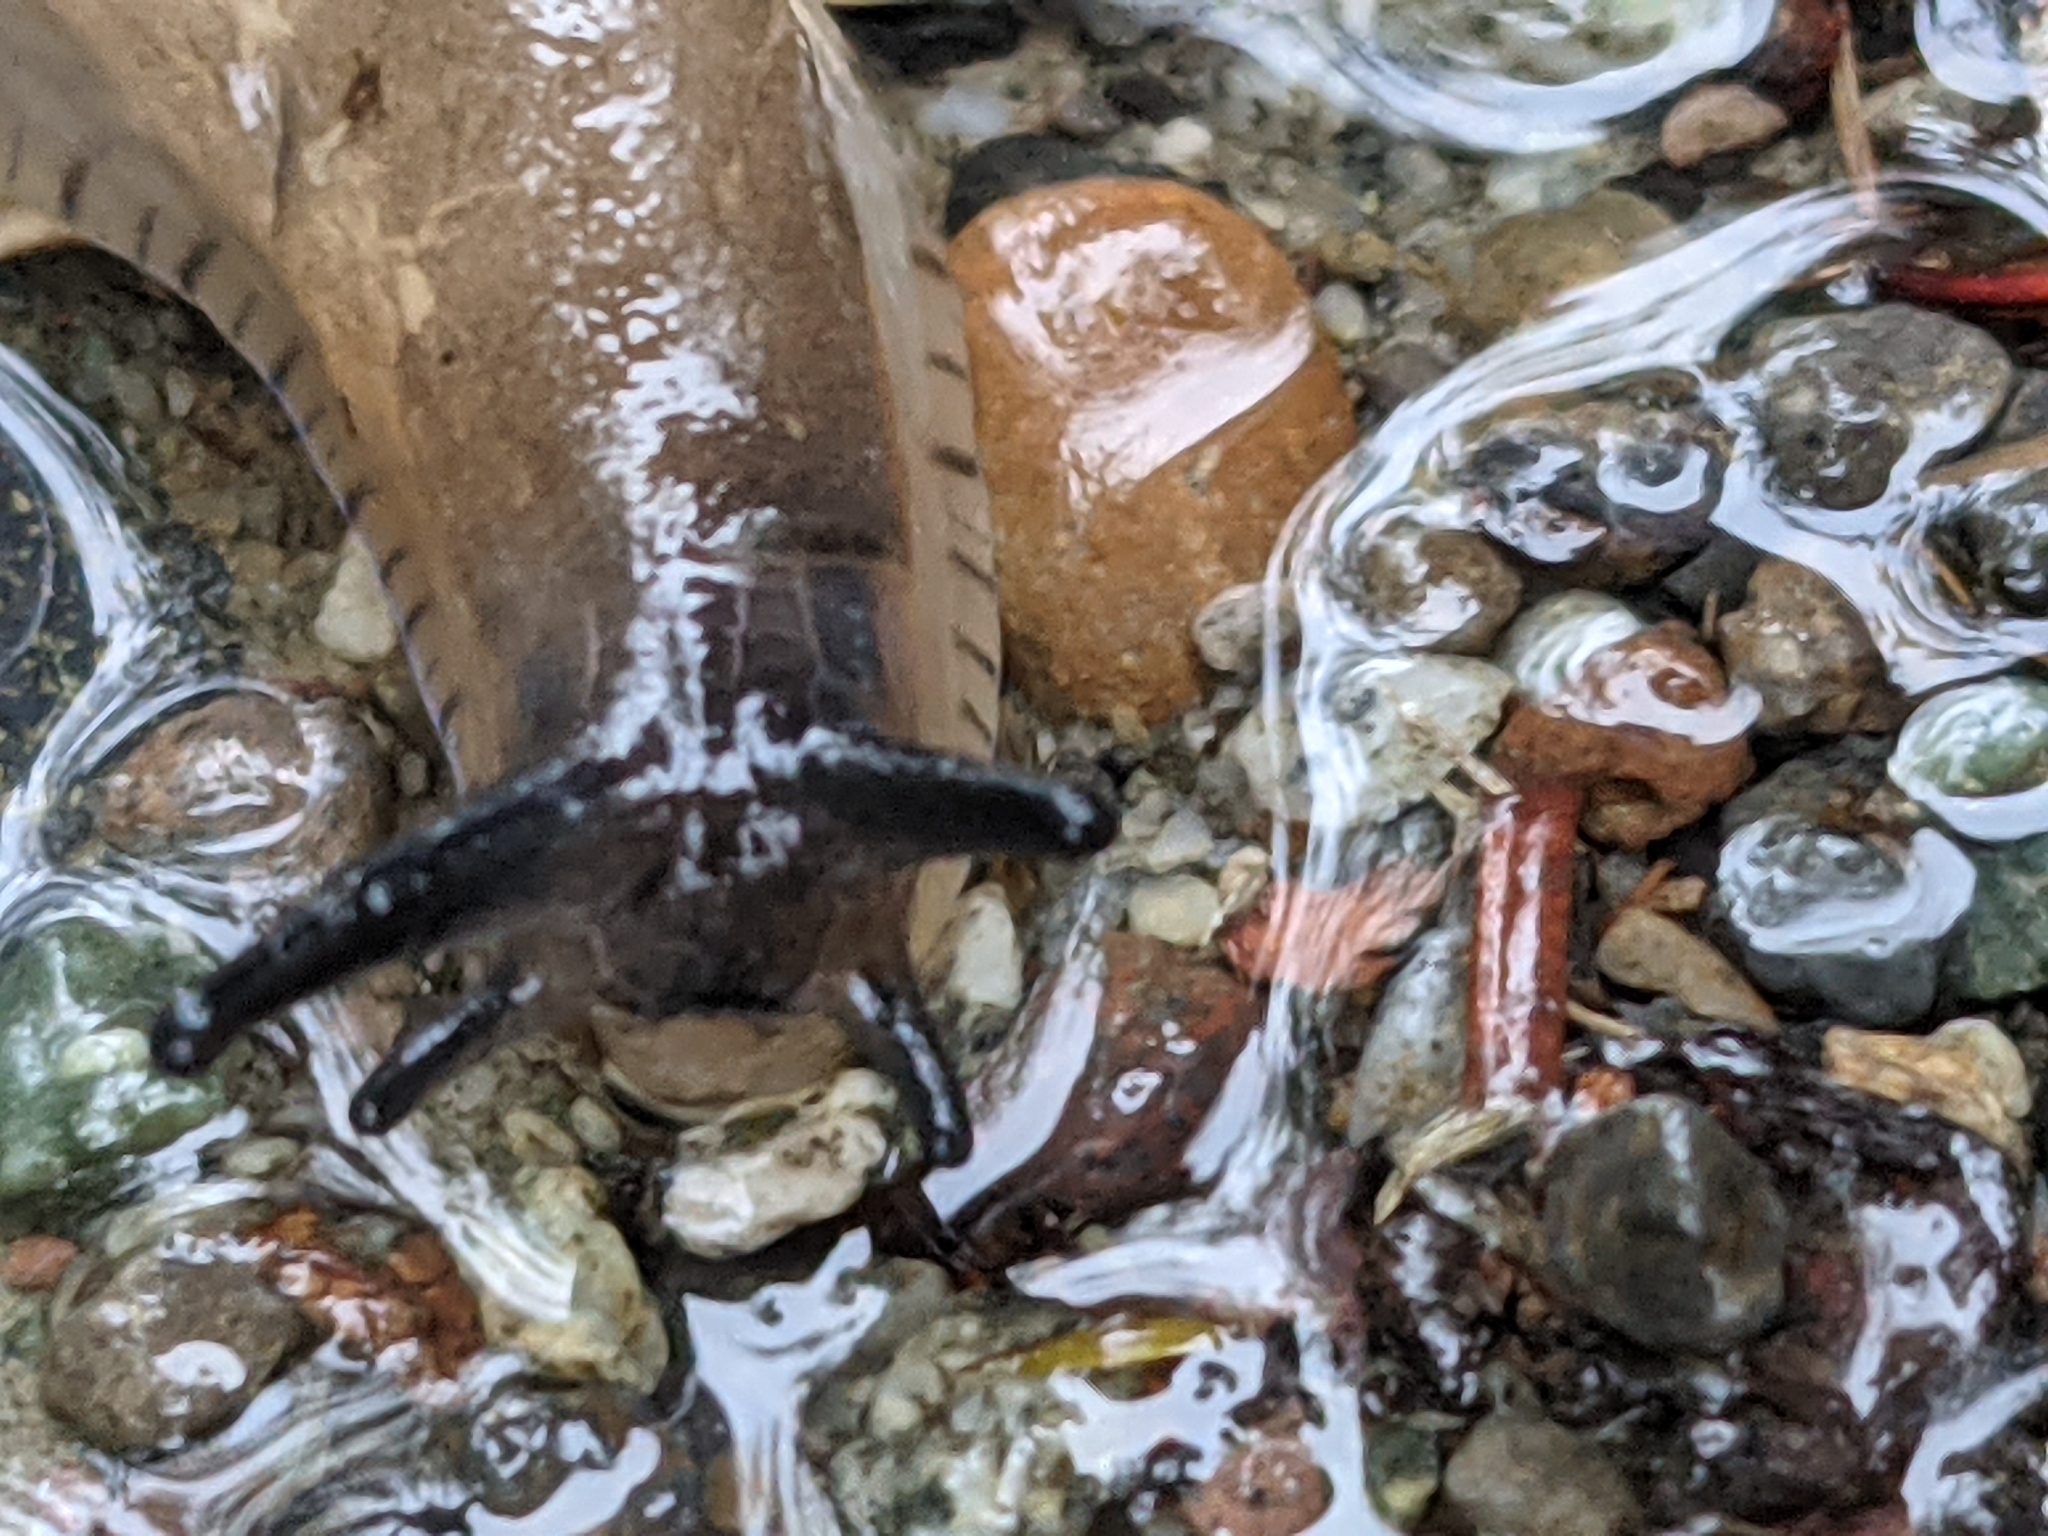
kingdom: Animalia
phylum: Mollusca
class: Gastropoda
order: Stylommatophora
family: Arionidae
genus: Arion
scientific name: Arion
